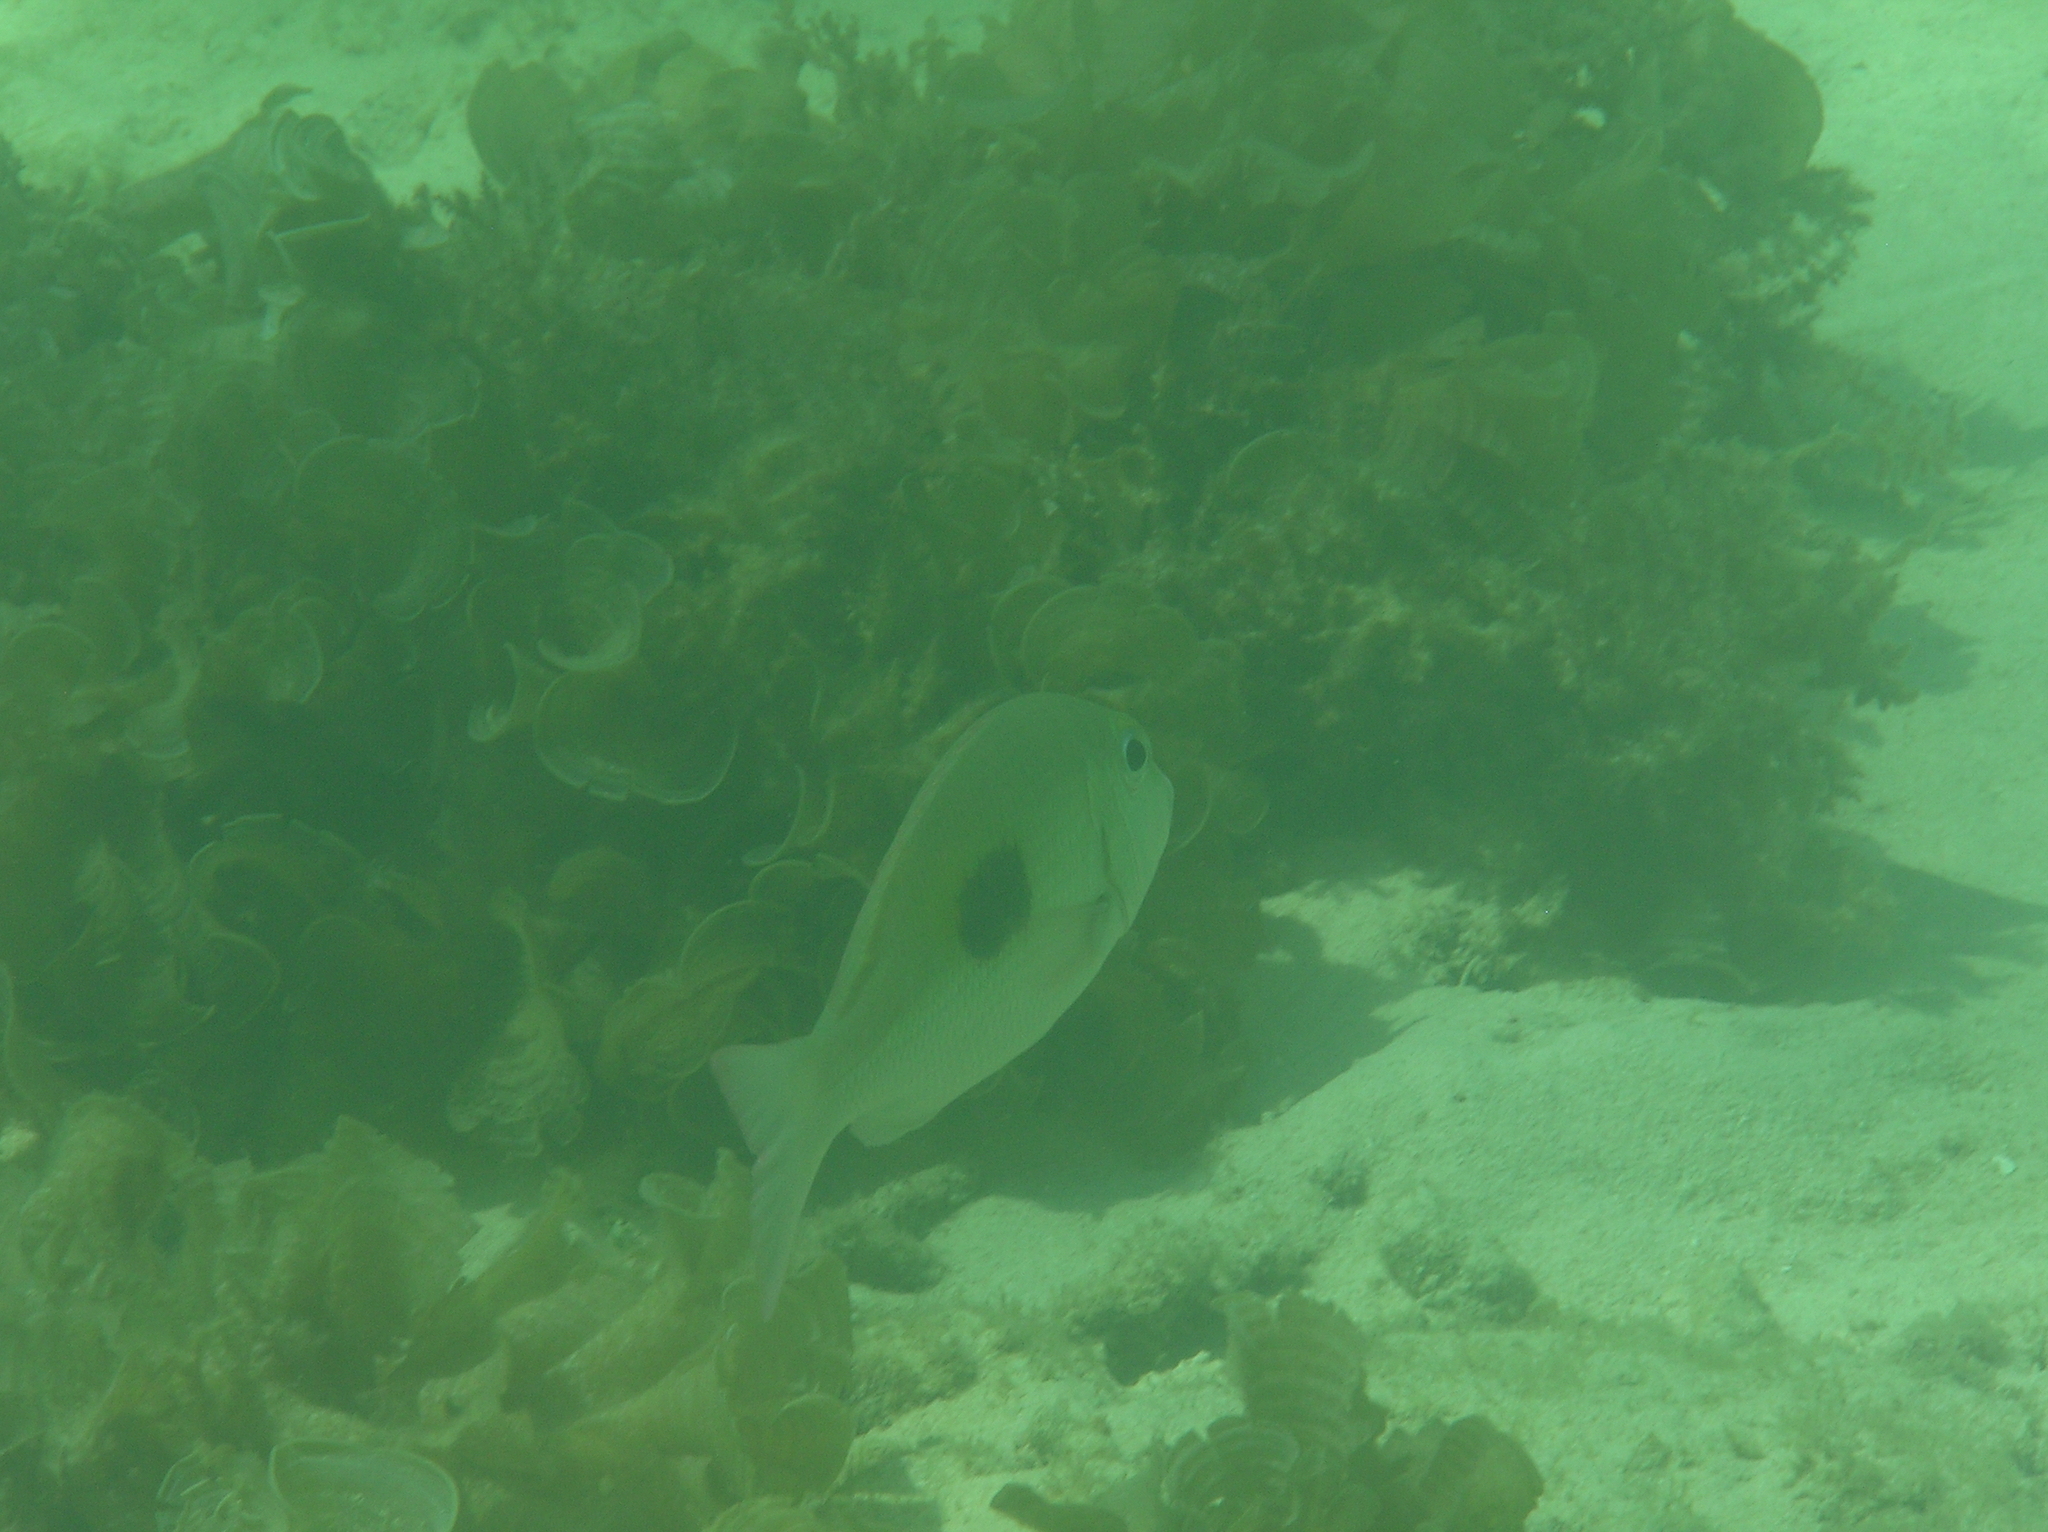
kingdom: Animalia
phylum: Chordata
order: Perciformes
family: Lethrinidae
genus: Lethrinus
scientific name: Lethrinus harak
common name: Blackspot emperor
